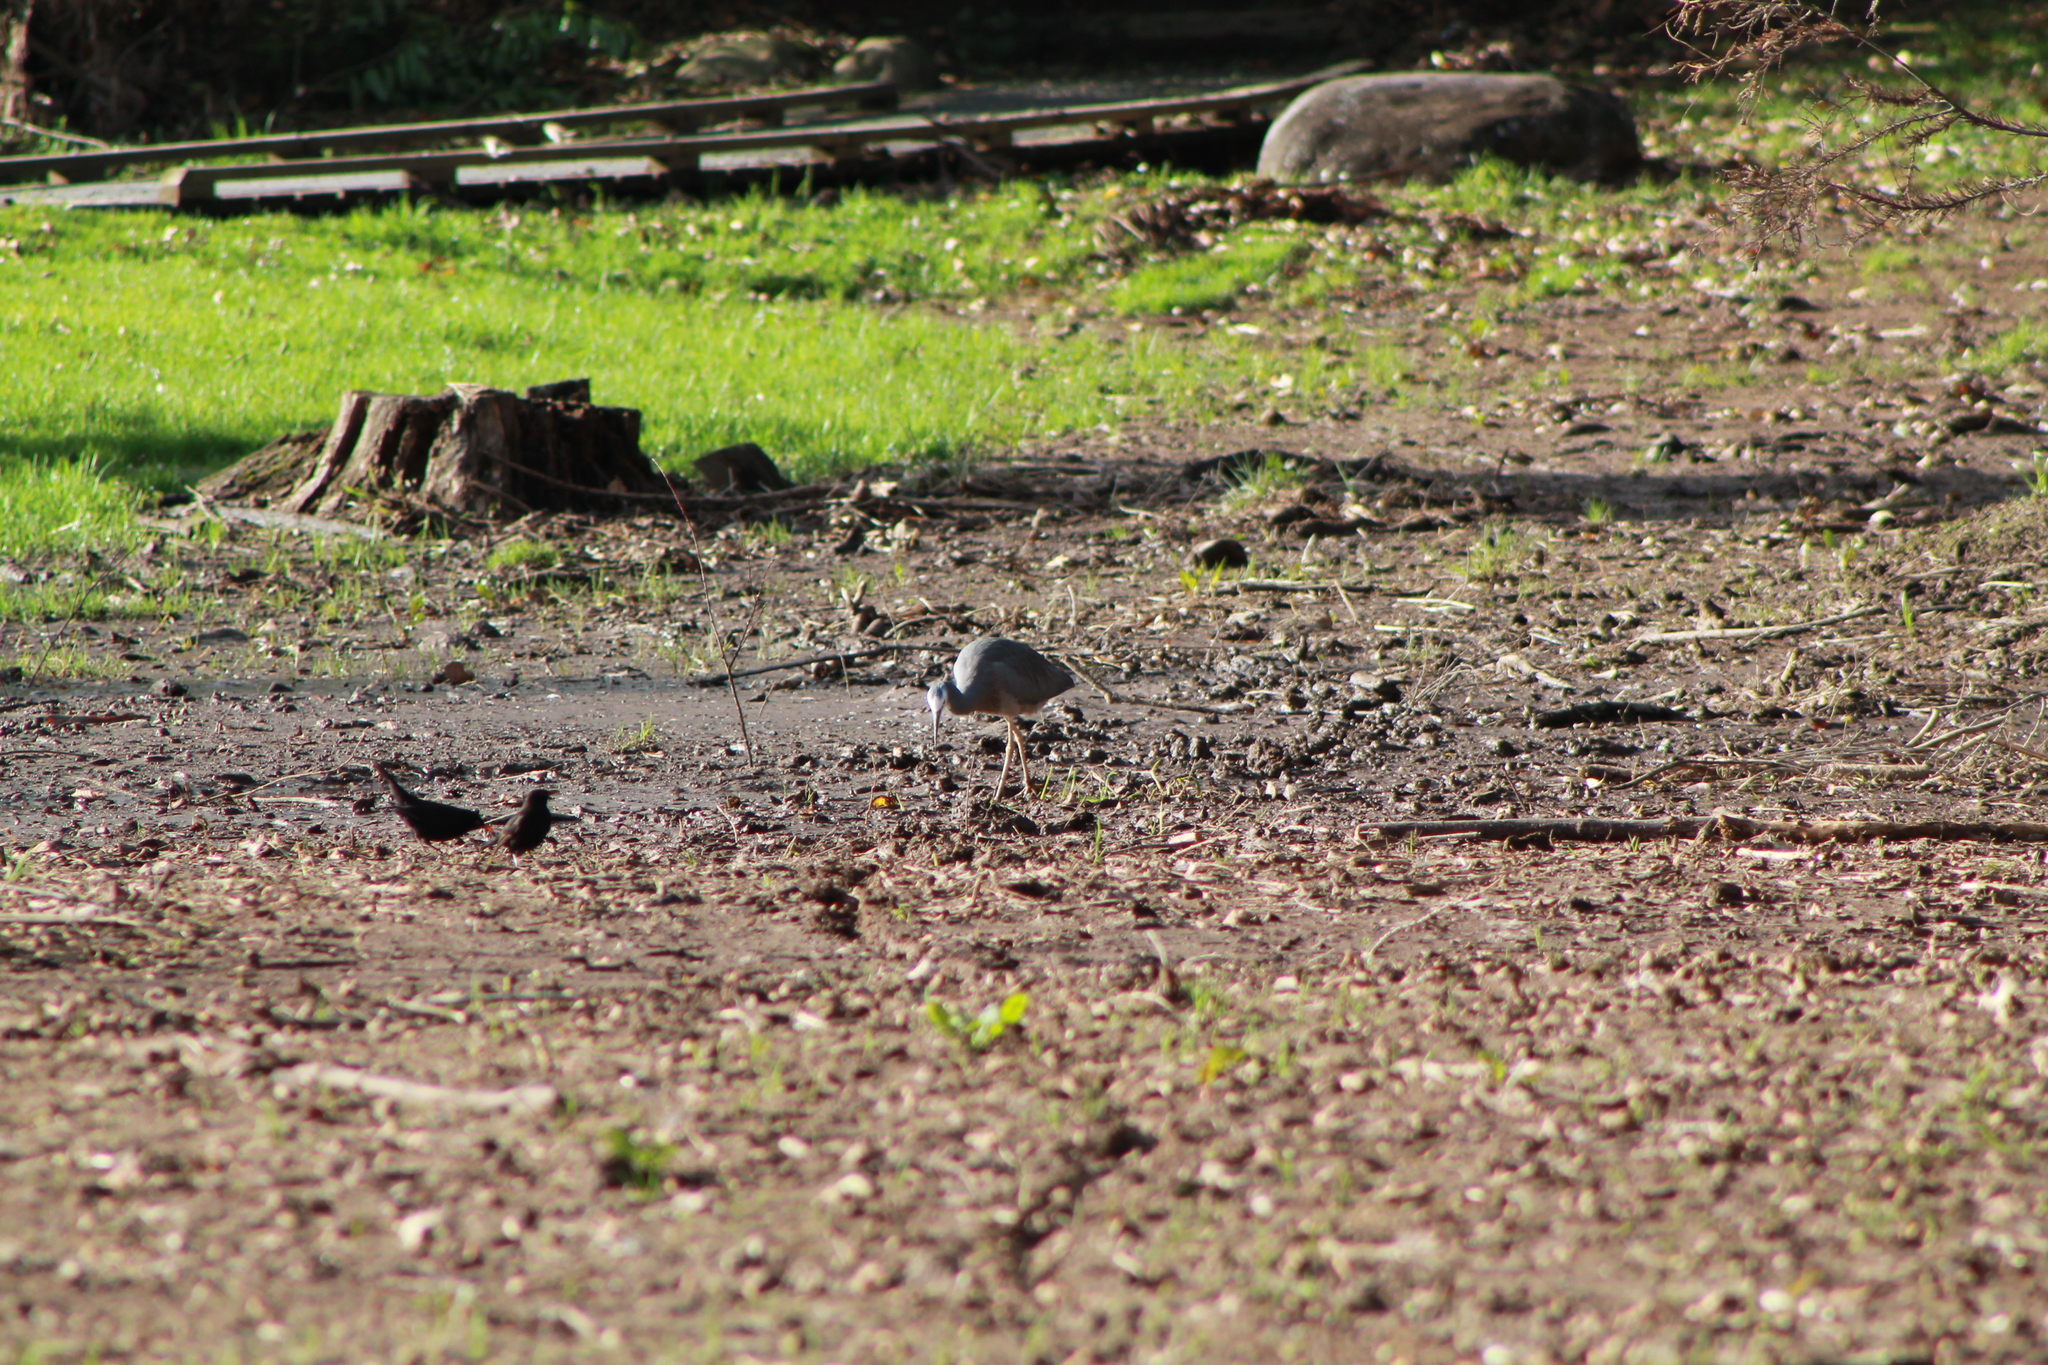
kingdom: Animalia
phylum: Chordata
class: Aves
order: Pelecaniformes
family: Ardeidae
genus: Egretta
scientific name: Egretta novaehollandiae
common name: White-faced heron
